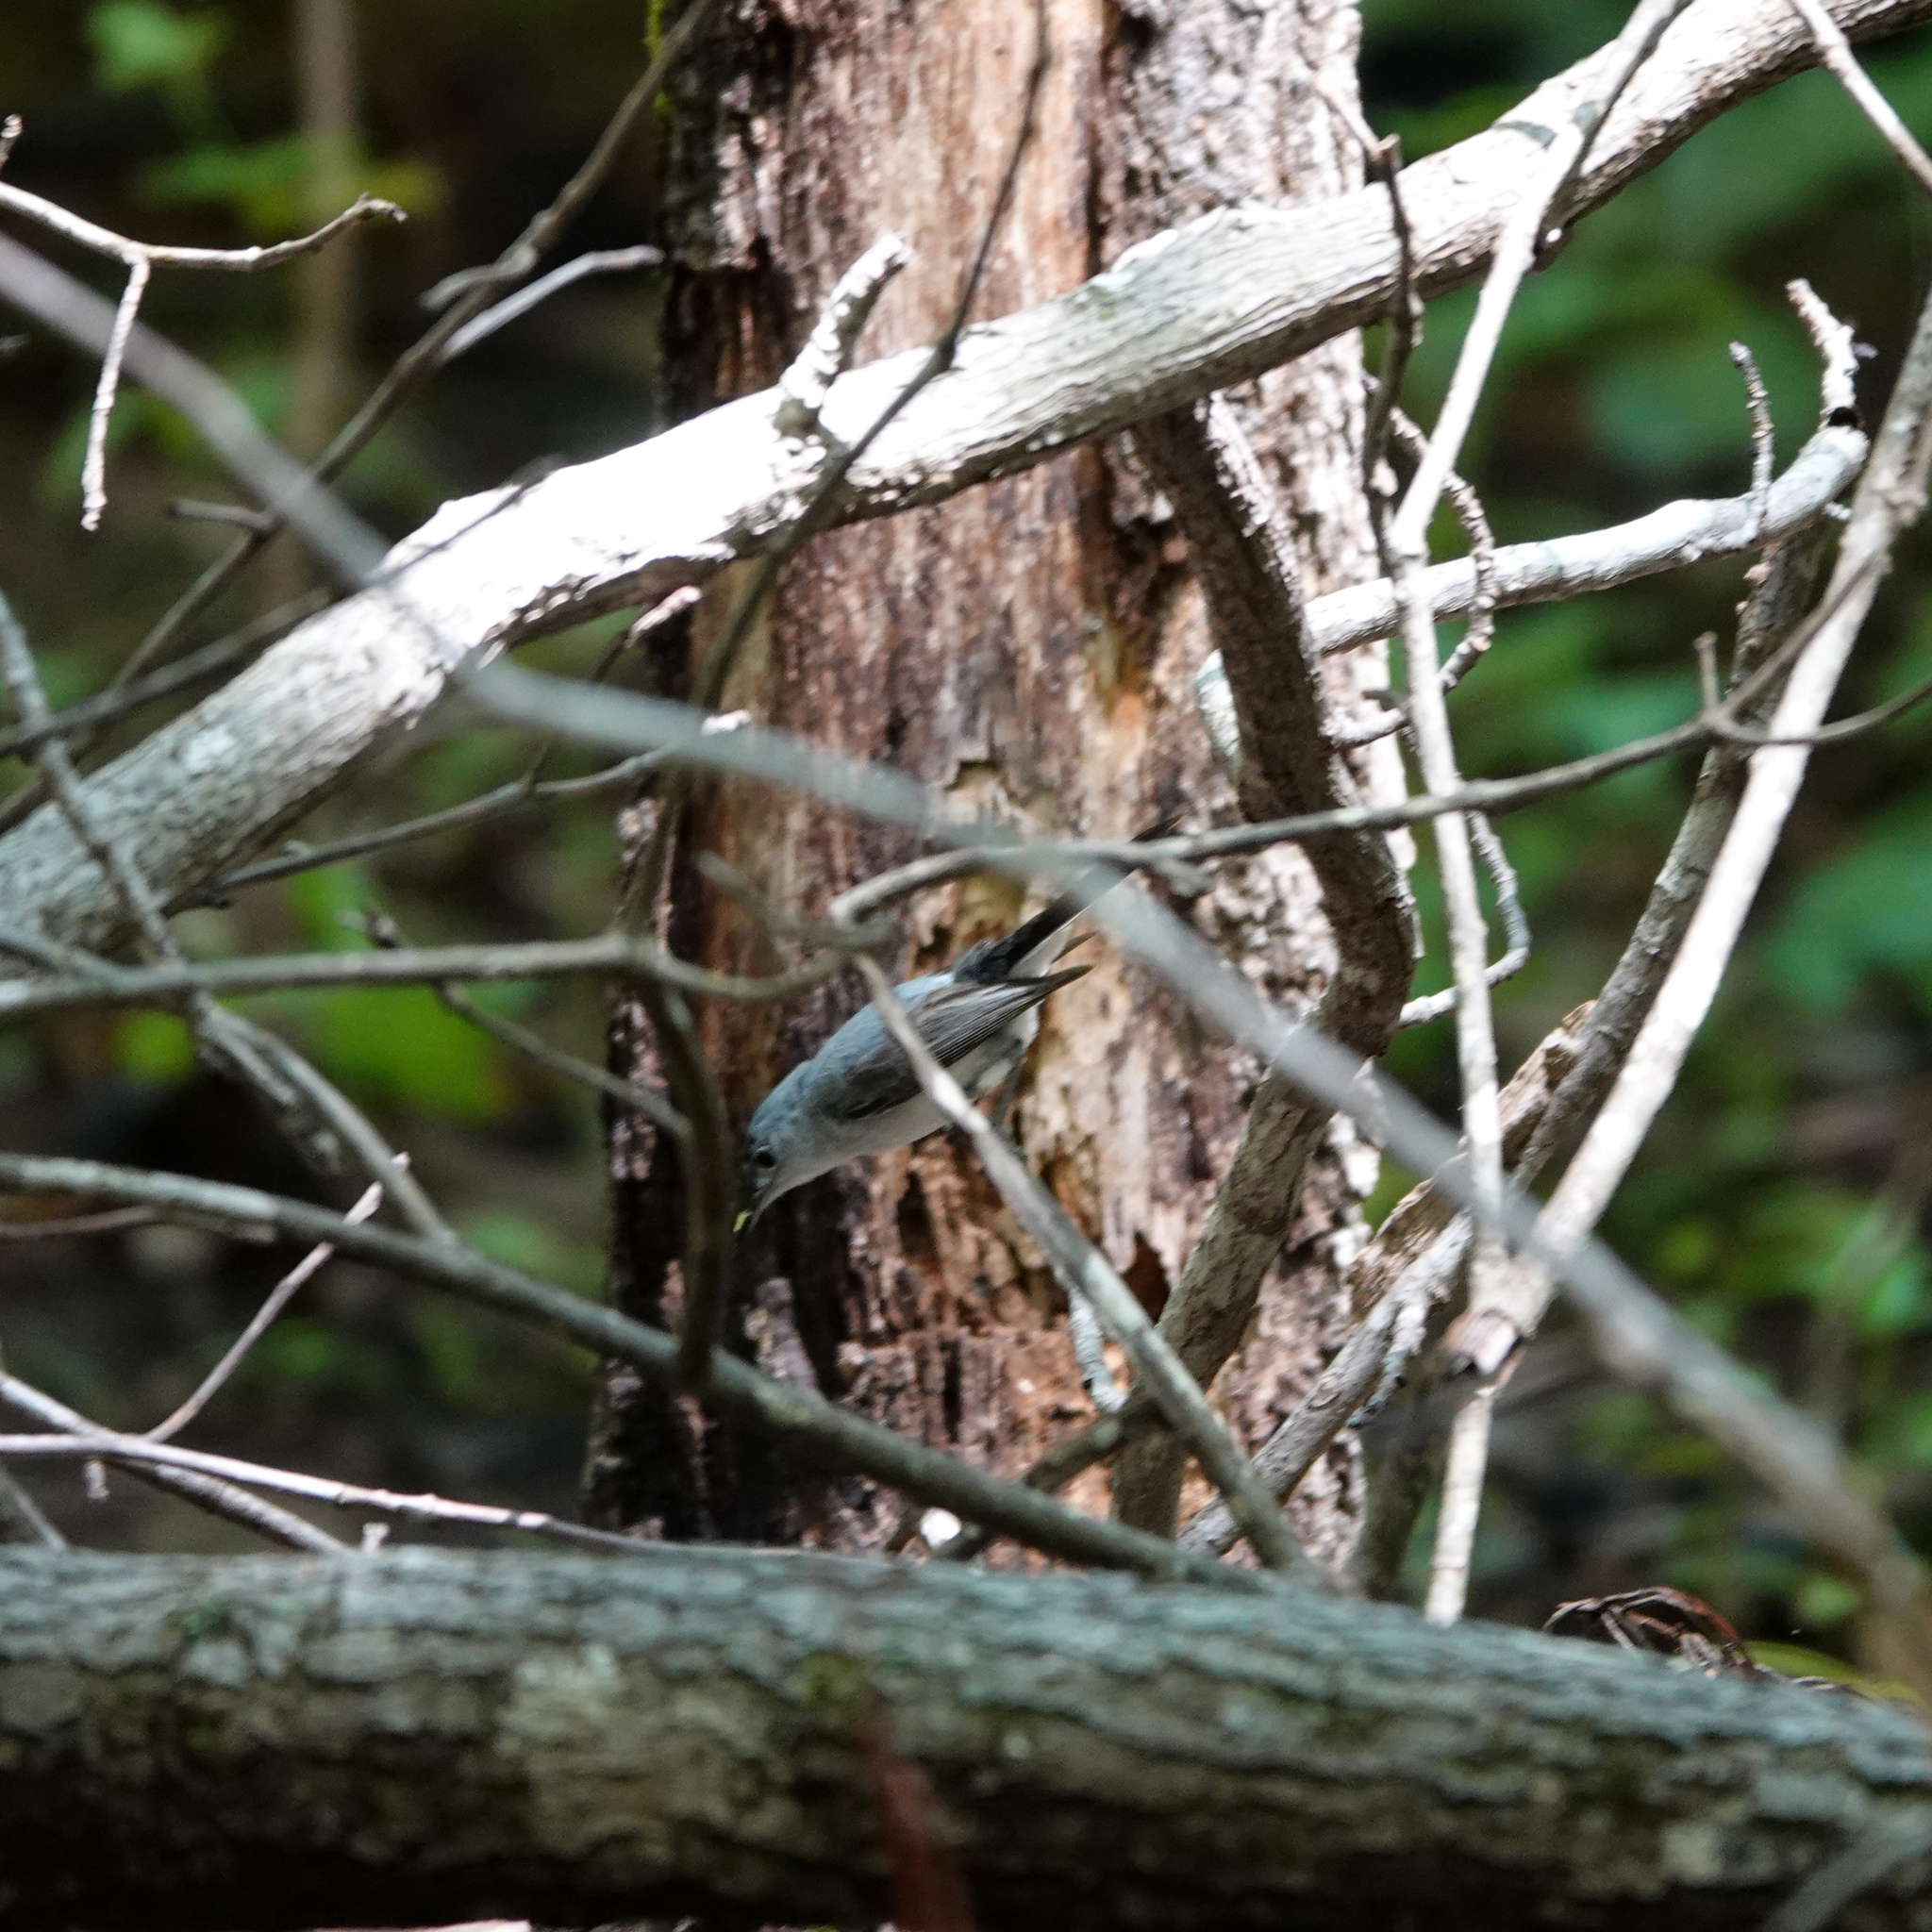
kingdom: Animalia
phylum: Chordata
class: Aves
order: Passeriformes
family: Polioptilidae
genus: Polioptila
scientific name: Polioptila caerulea
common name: Blue-gray gnatcatcher
